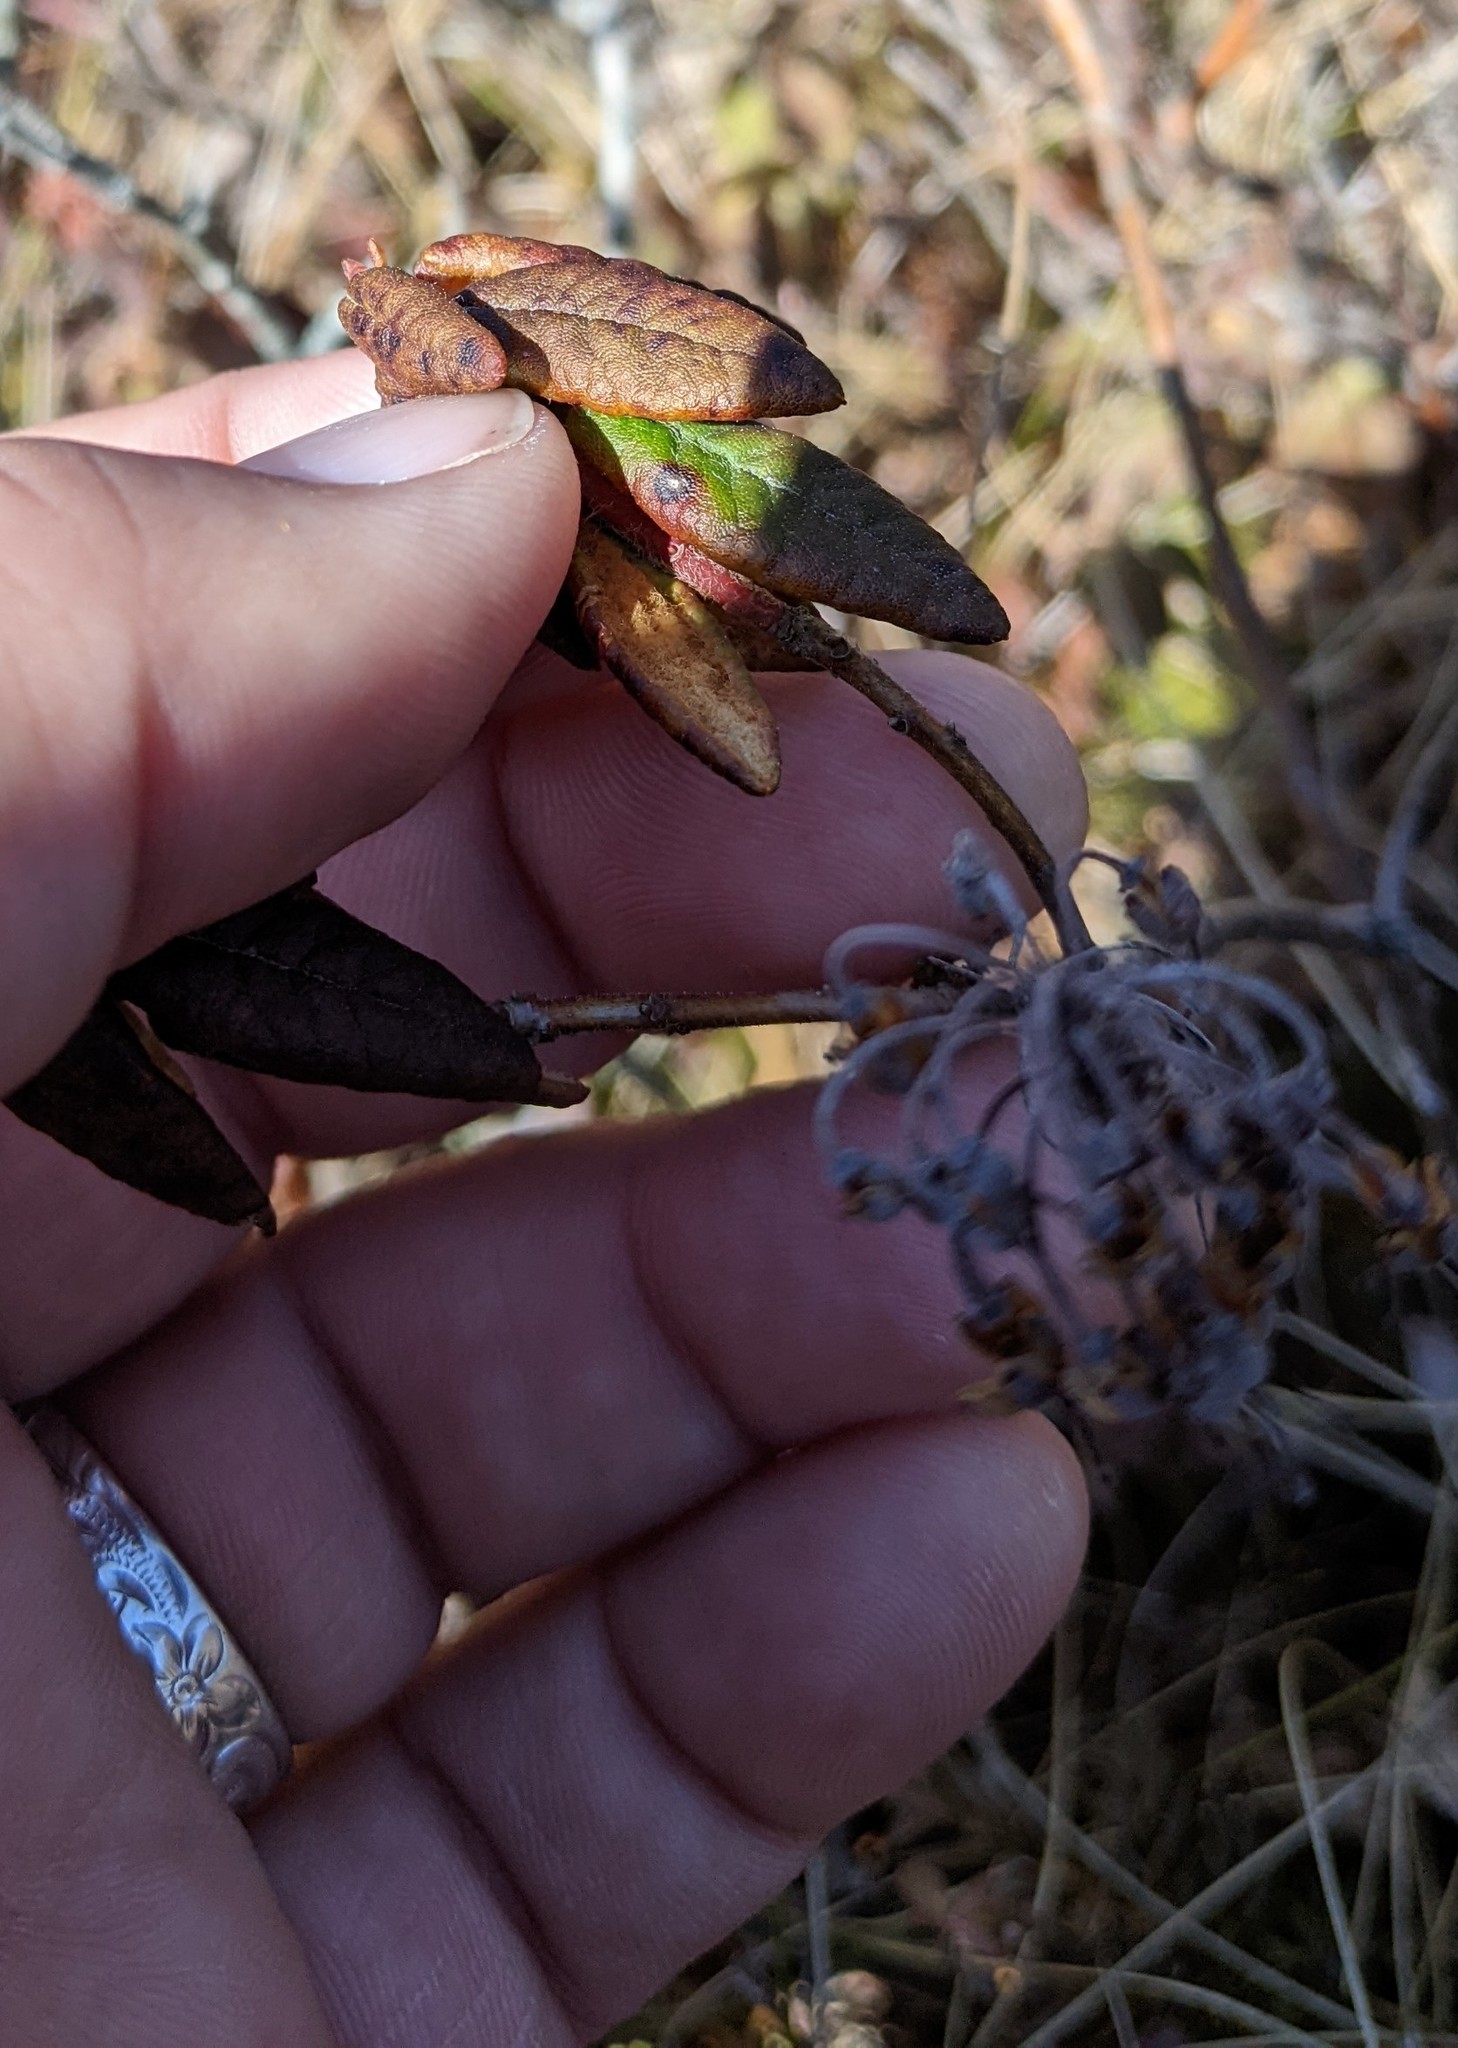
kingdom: Plantae
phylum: Tracheophyta
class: Magnoliopsida
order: Ericales
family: Ericaceae
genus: Rhododendron
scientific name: Rhododendron groenlandicum
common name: Bog labrador tea
